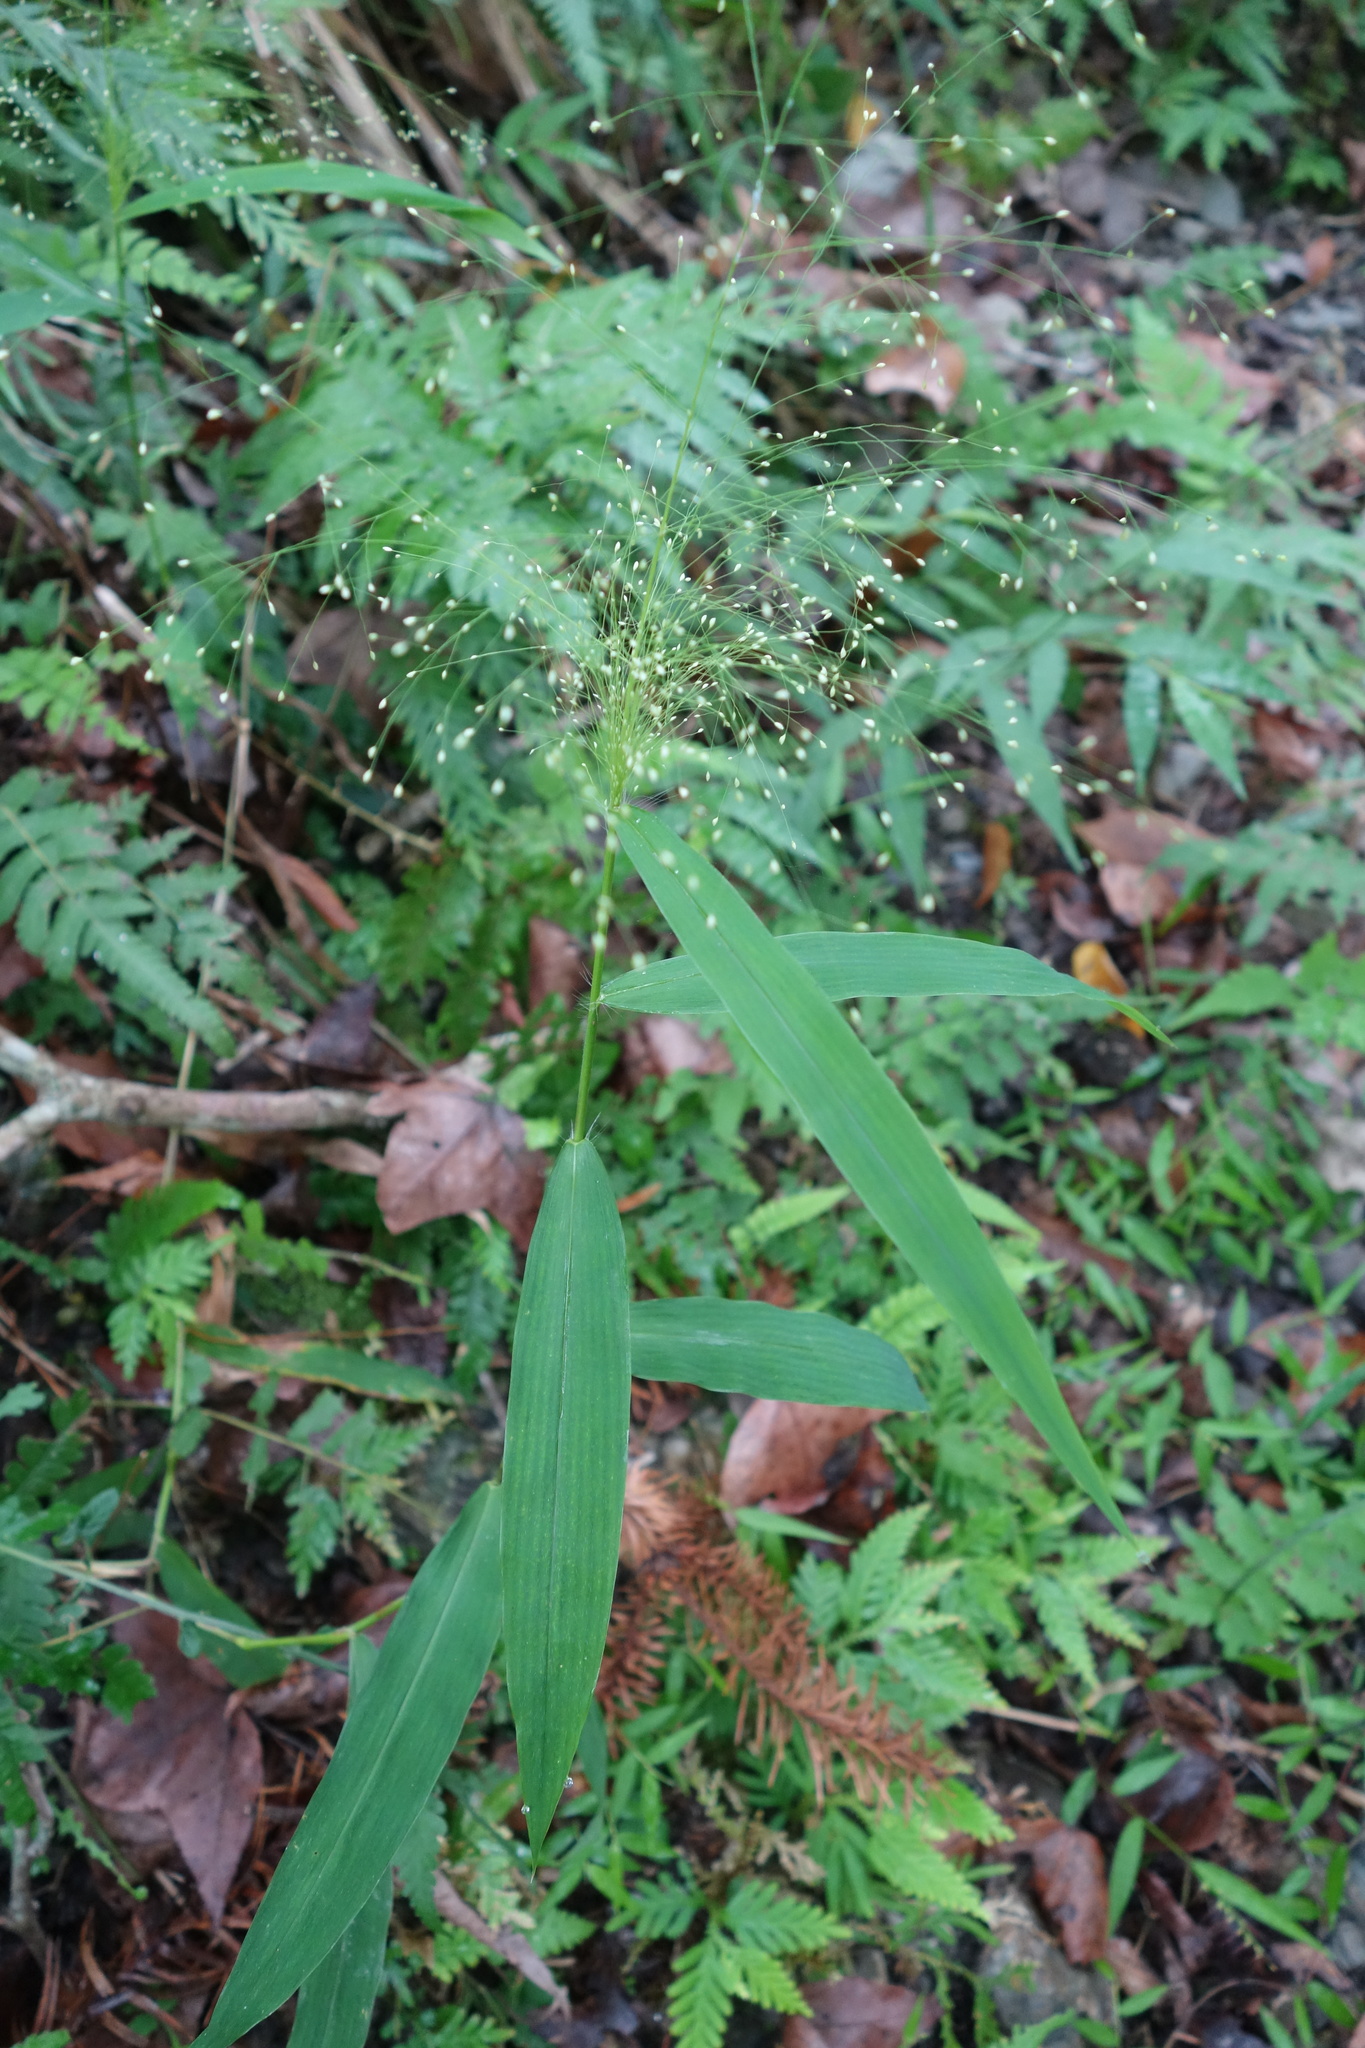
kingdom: Plantae
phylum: Tracheophyta
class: Liliopsida
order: Poales
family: Poaceae
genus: Cyrtococcum
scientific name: Cyrtococcum patens
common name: Broad-leaved bowgrass
